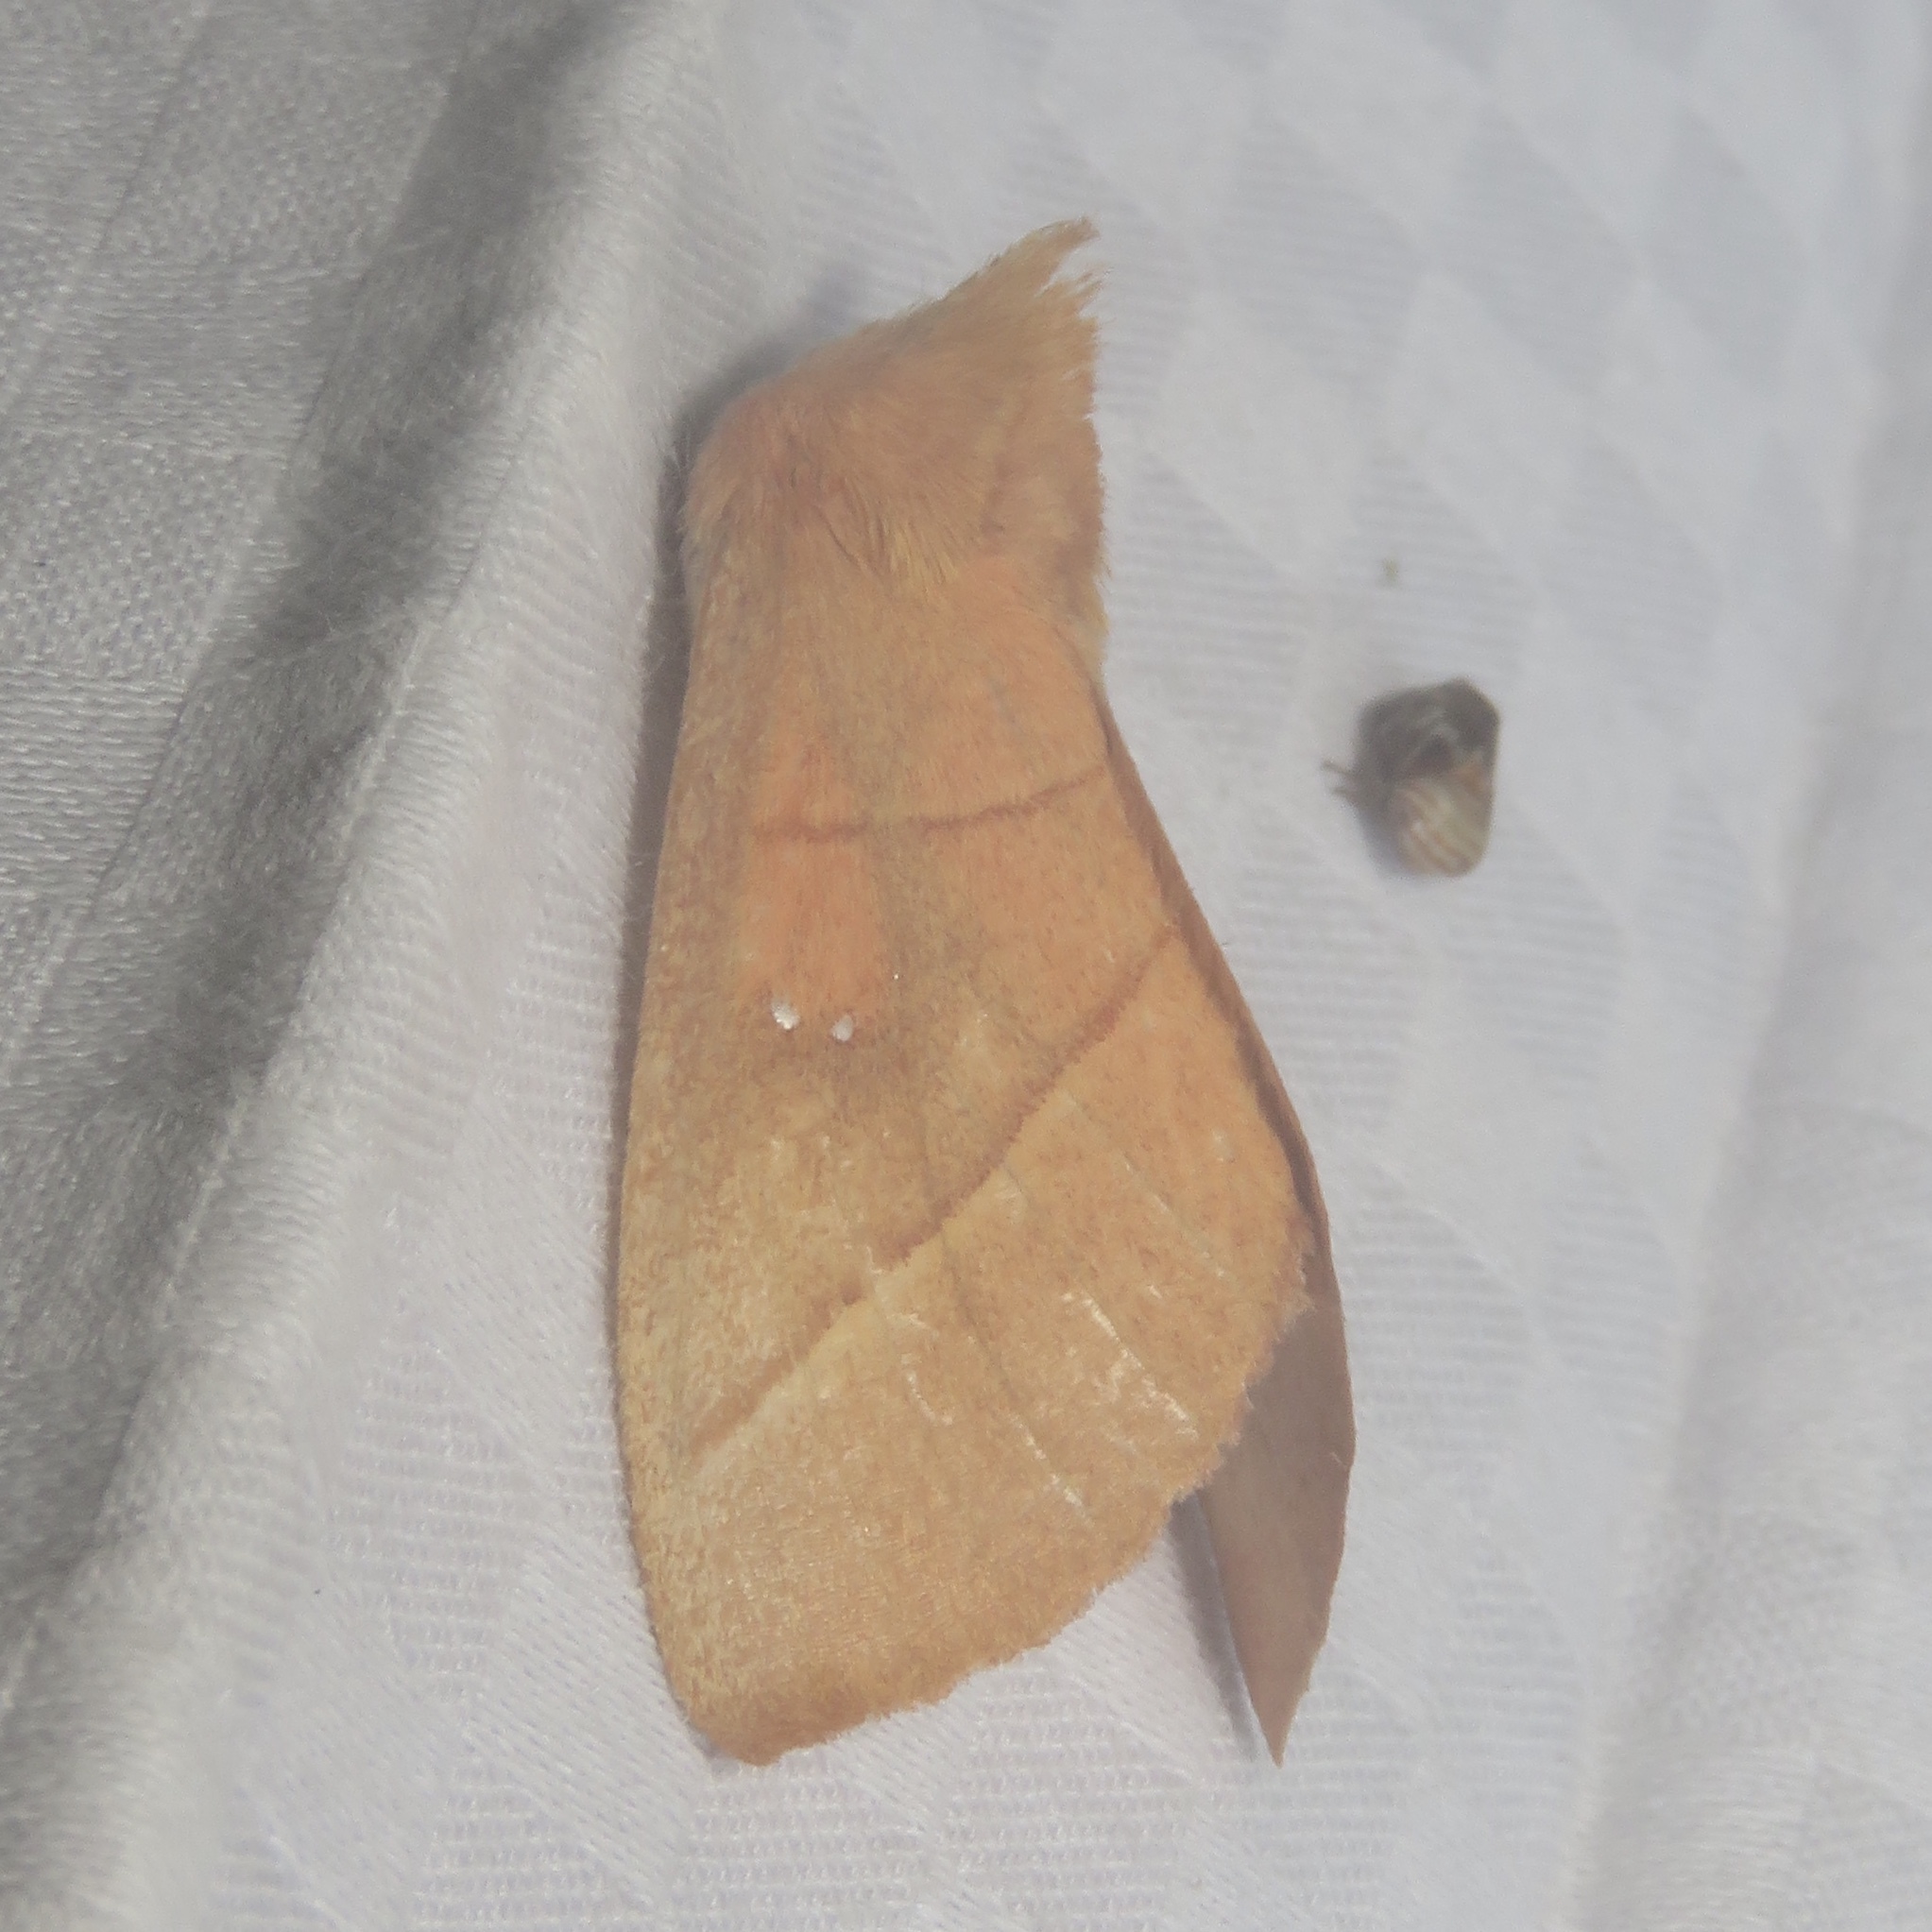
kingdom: Animalia
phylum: Arthropoda
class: Insecta
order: Lepidoptera
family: Notodontidae
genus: Nadata
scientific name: Nadata gibbosa
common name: White-dotted prominent
